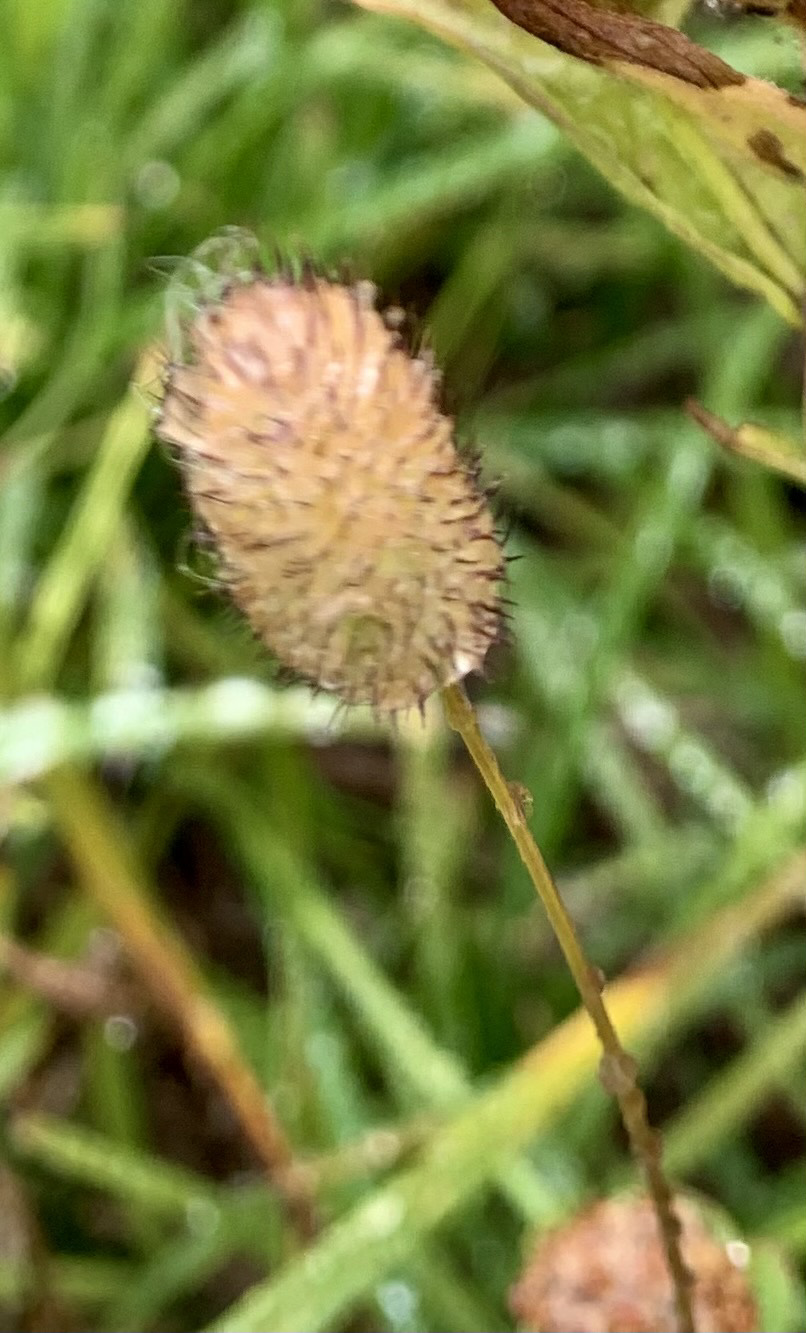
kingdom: Plantae
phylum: Tracheophyta
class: Liliopsida
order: Poales
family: Poaceae
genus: Phleum
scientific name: Phleum alpinum
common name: Alpine cat's-tail
